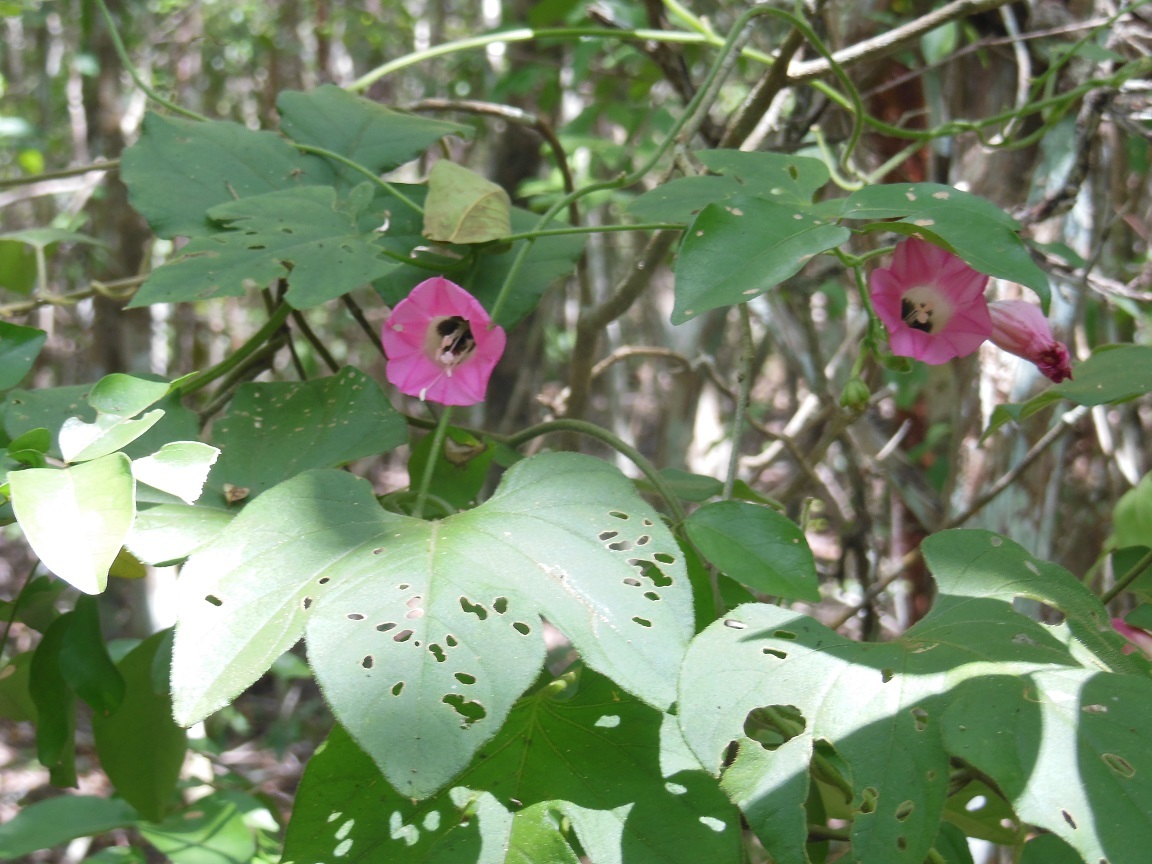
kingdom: Plantae
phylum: Tracheophyta
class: Magnoliopsida
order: Solanales
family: Convolvulaceae
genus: Ipomoea
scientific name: Ipomoea peteri
